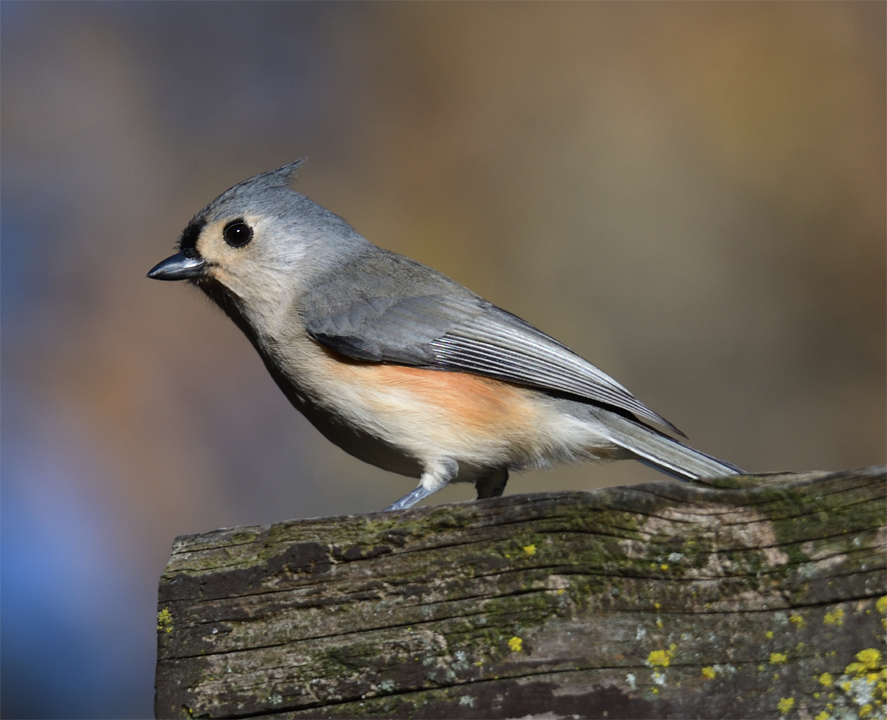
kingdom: Animalia
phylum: Chordata
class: Aves
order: Passeriformes
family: Paridae
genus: Baeolophus
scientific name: Baeolophus bicolor
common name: Tufted titmouse
